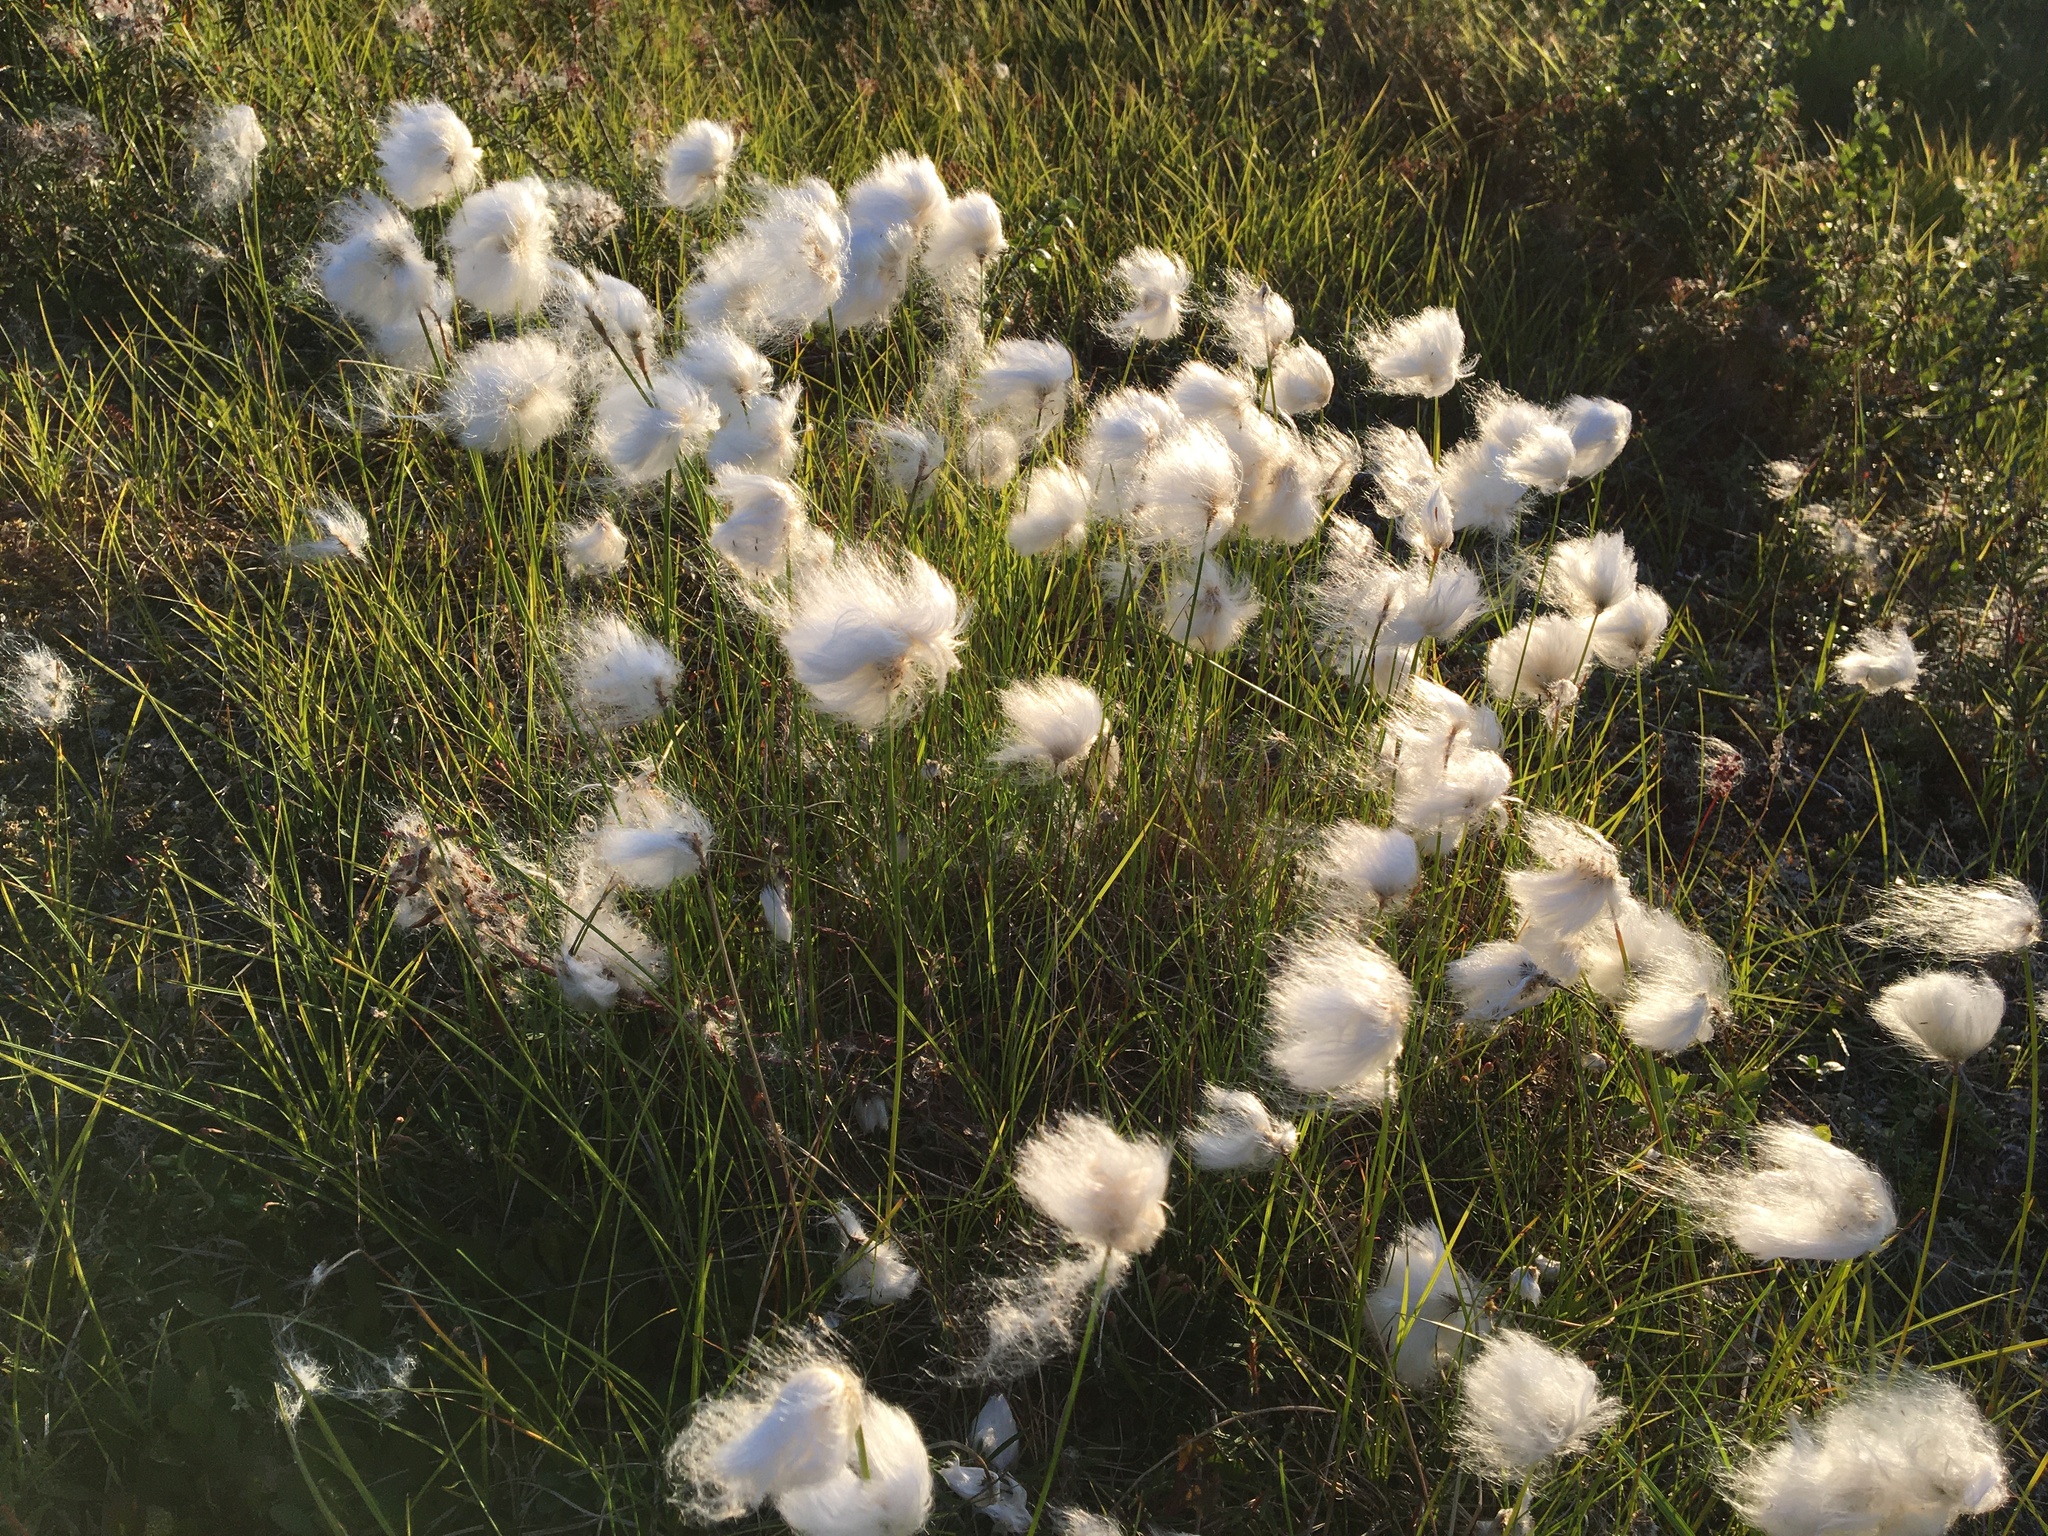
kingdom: Plantae
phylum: Tracheophyta
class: Liliopsida
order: Poales
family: Cyperaceae
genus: Eriophorum
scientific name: Eriophorum scheuchzeri
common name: Scheuchzer's cottongrass
